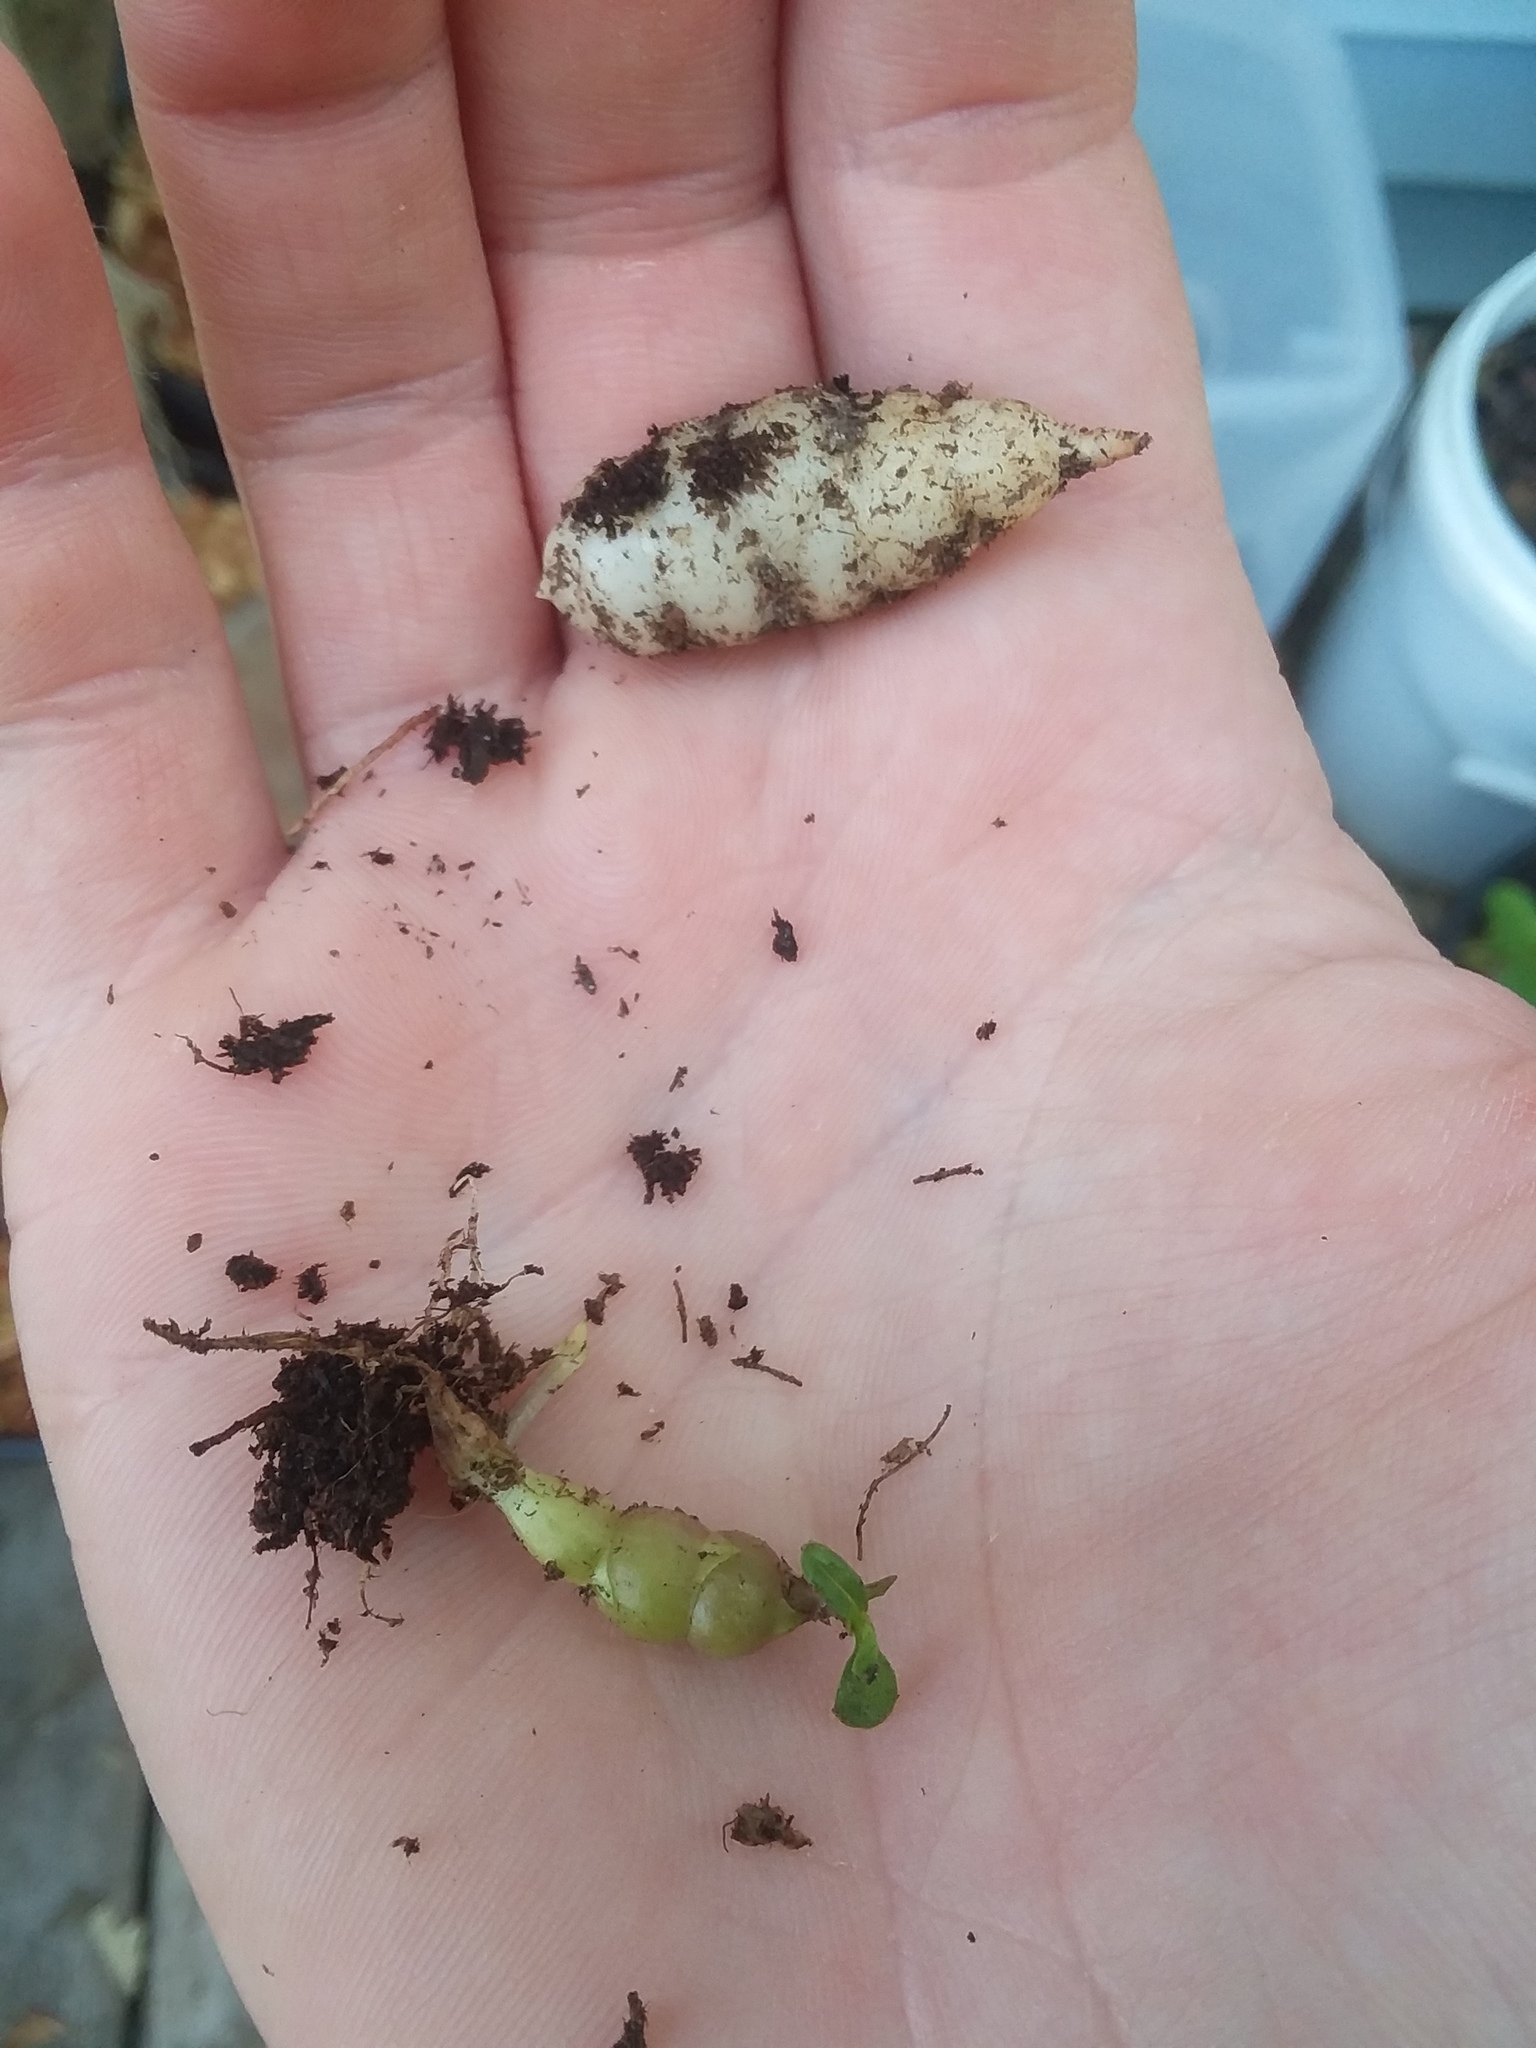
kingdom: Plantae
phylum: Tracheophyta
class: Magnoliopsida
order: Lamiales
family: Lamiaceae
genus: Stachys
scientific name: Stachys floridana
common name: Florida betony
